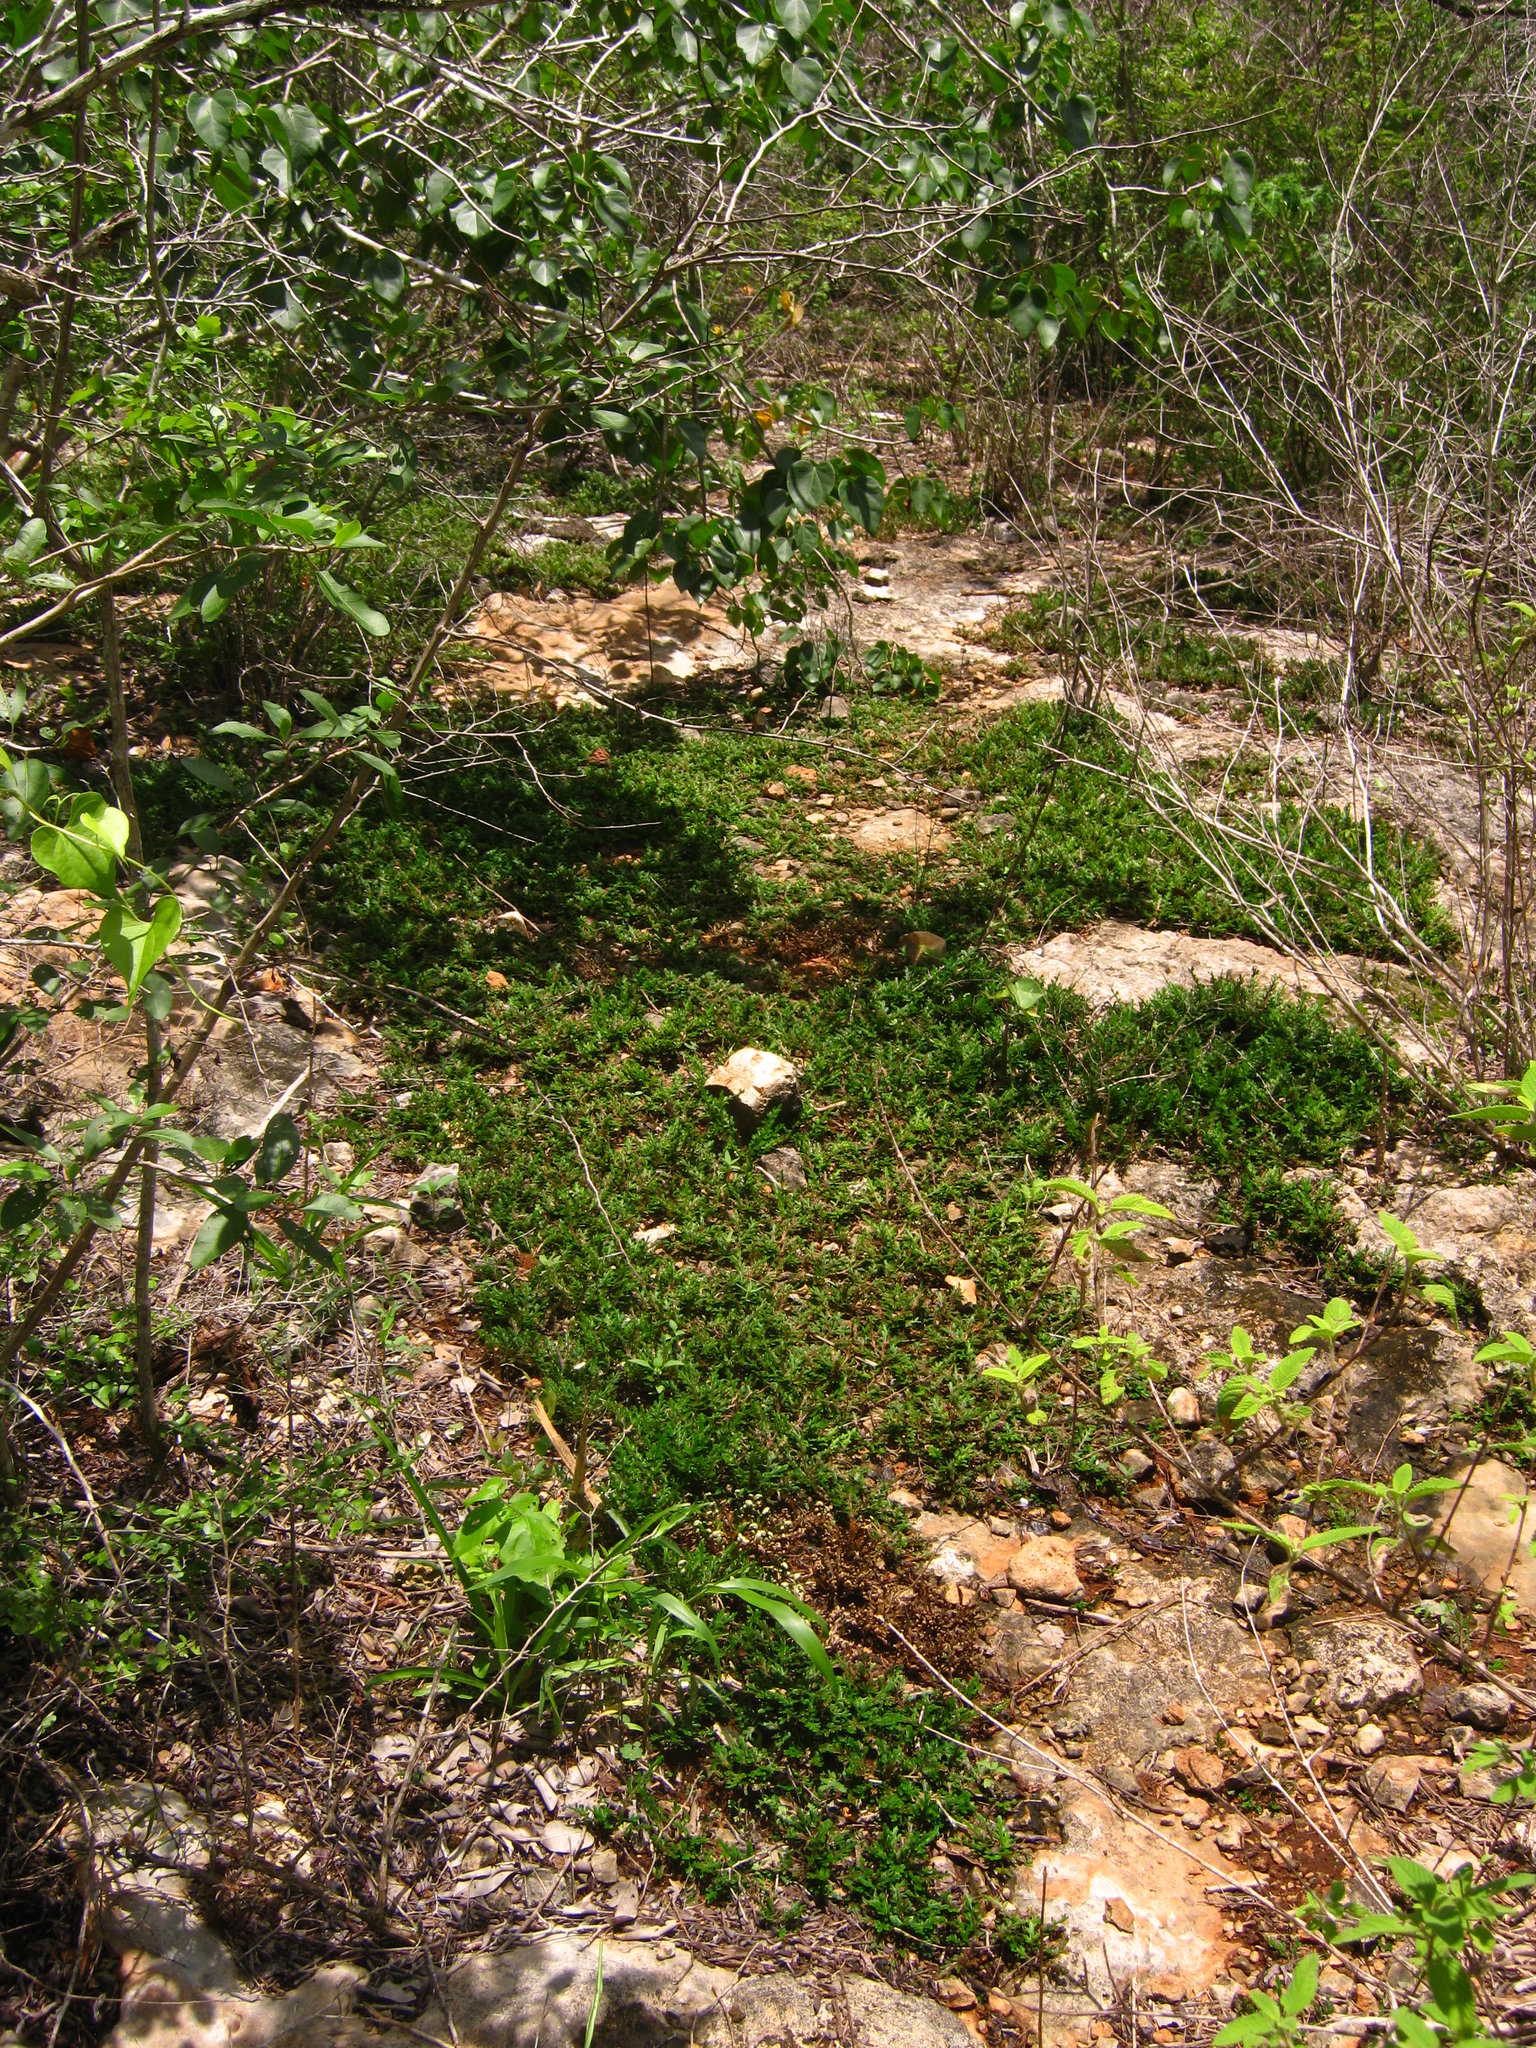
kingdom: Plantae
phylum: Tracheophyta
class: Lycopodiopsida
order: Selaginellales
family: Selaginellaceae
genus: Selaginella
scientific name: Selaginella convoluta
